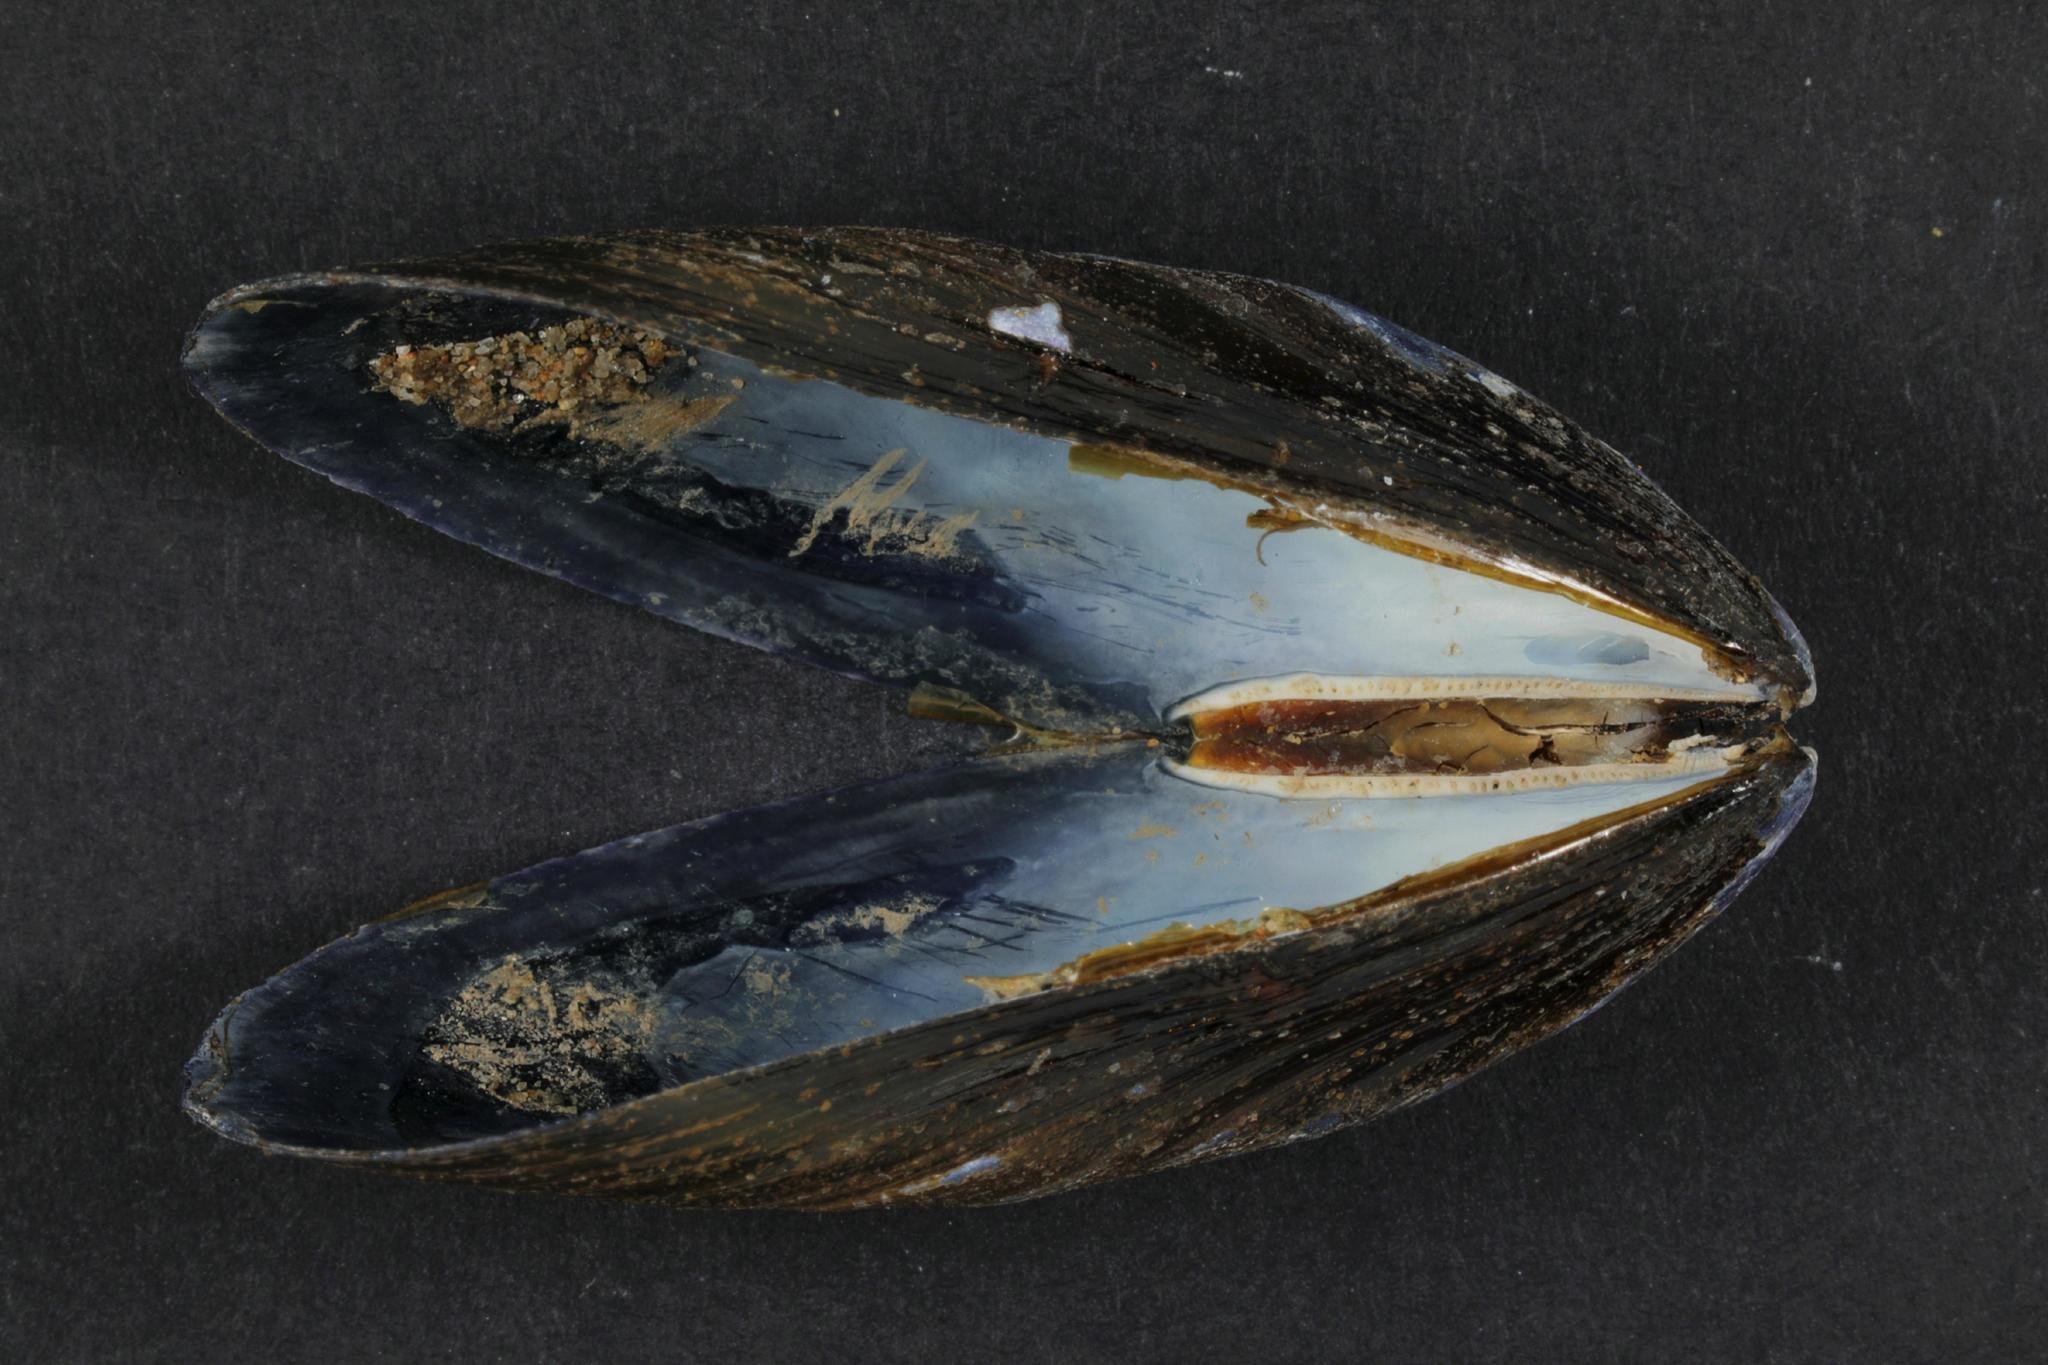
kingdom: Animalia
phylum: Mollusca
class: Bivalvia
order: Mytilida
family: Mytilidae
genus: Mytilus
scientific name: Mytilus edulis
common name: Blue mussel
